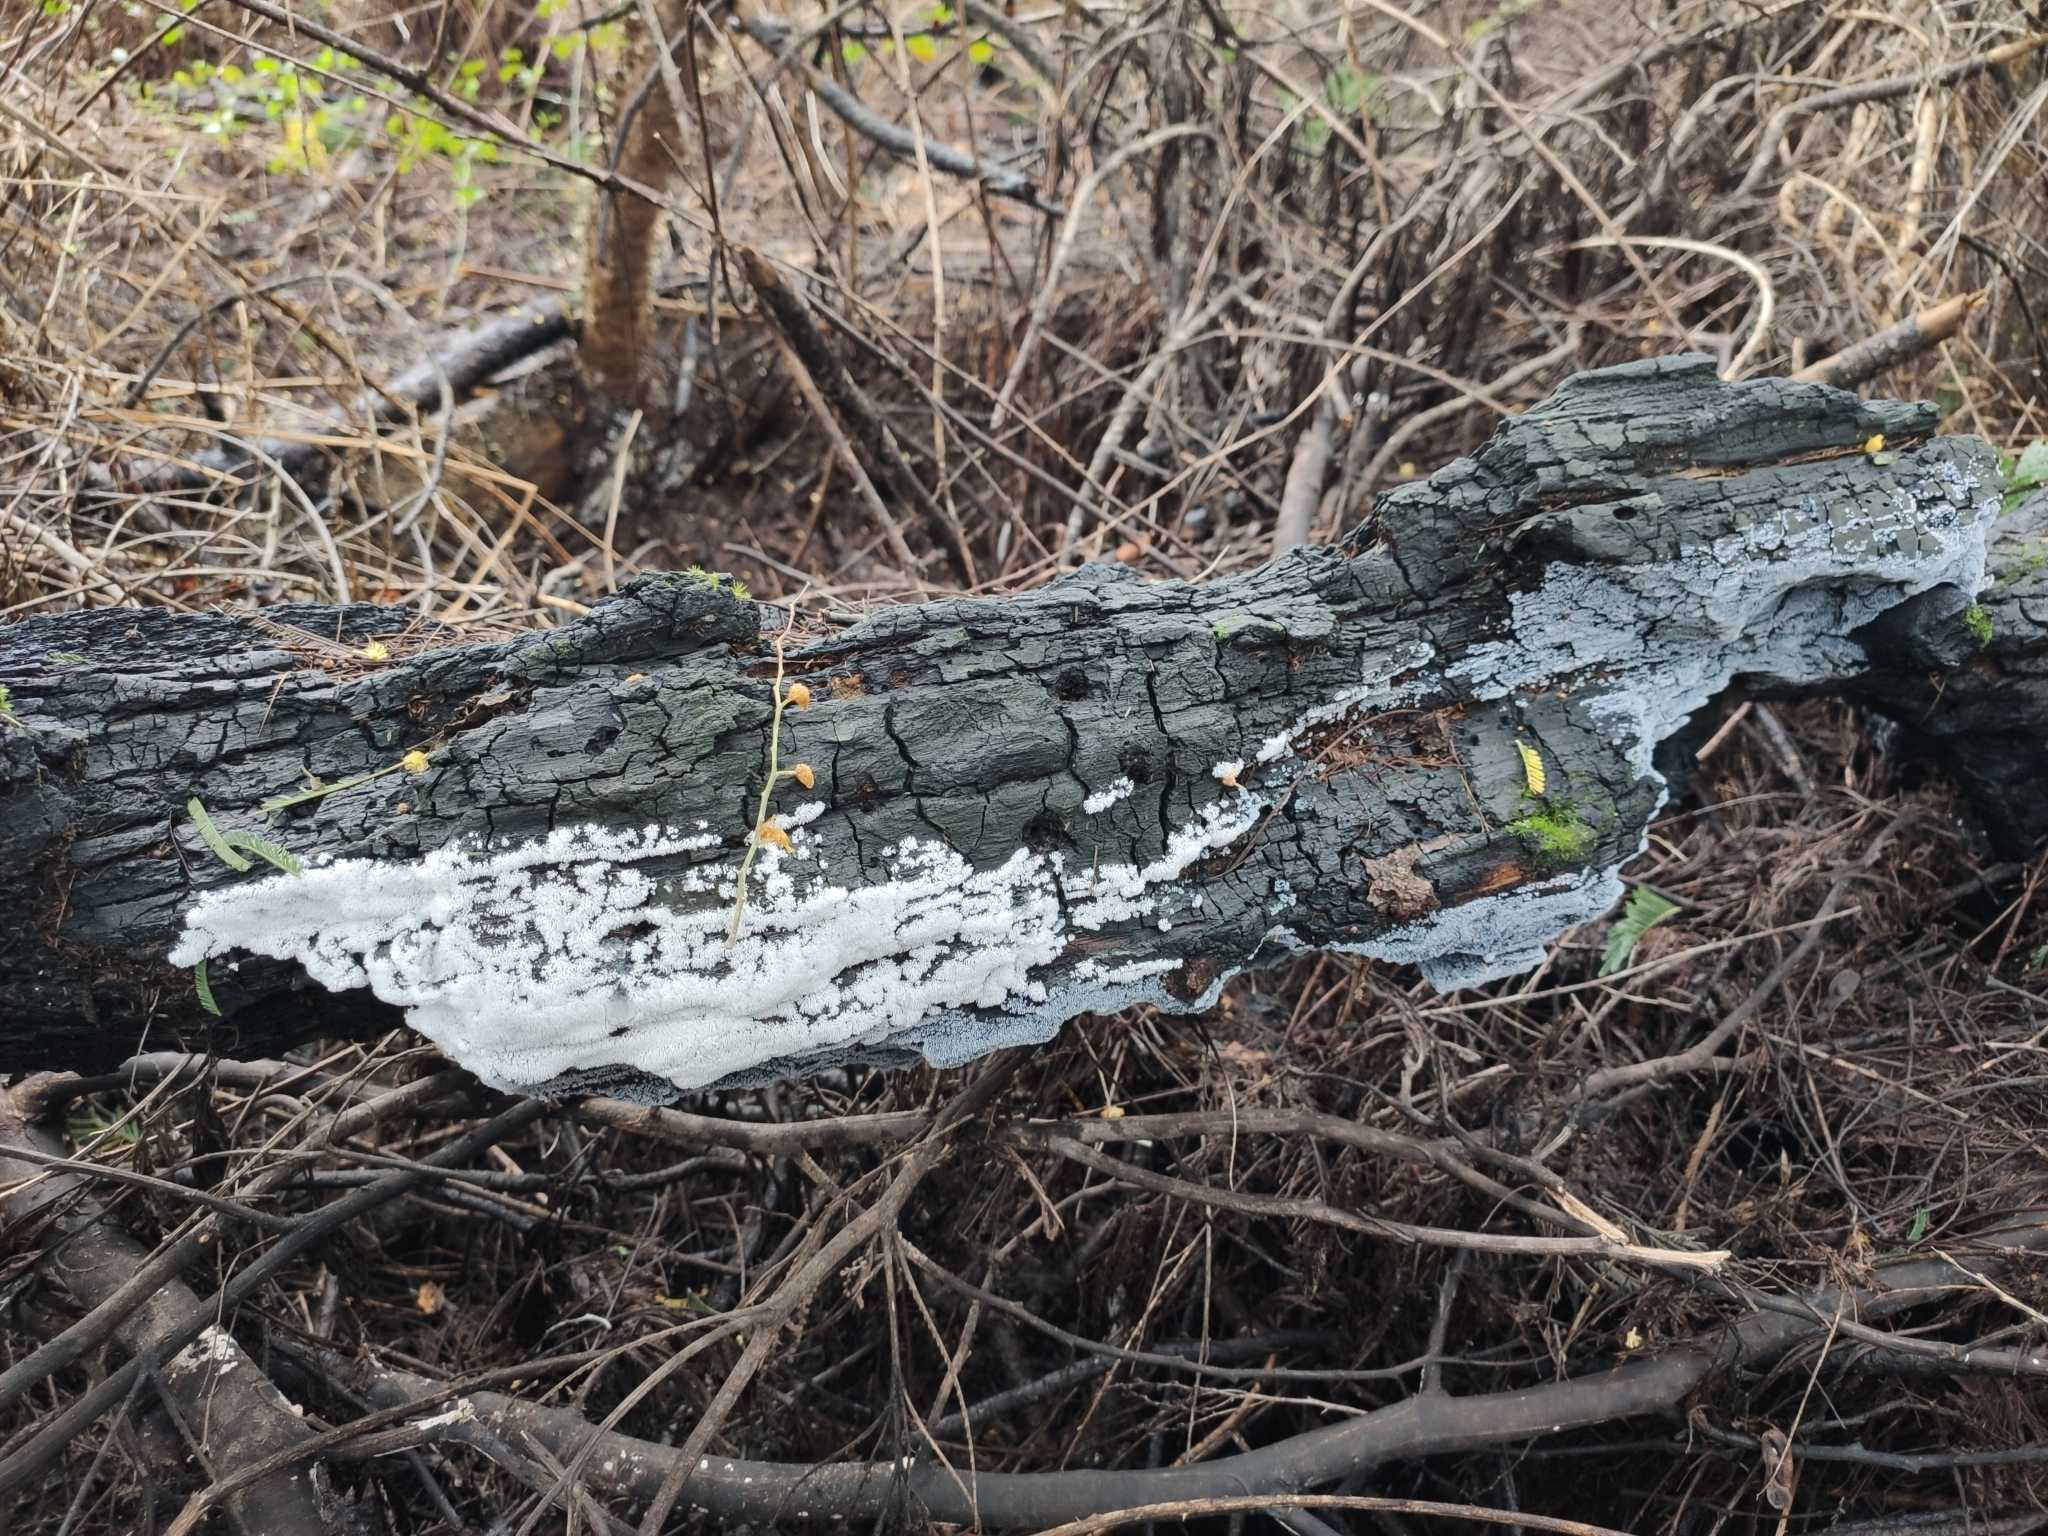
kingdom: Protozoa
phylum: Mycetozoa
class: Protosteliomycetes
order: Ceratiomyxales
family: Ceratiomyxaceae
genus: Ceratiomyxa
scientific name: Ceratiomyxa fruticulosa
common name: Honeycomb coral slime mold
